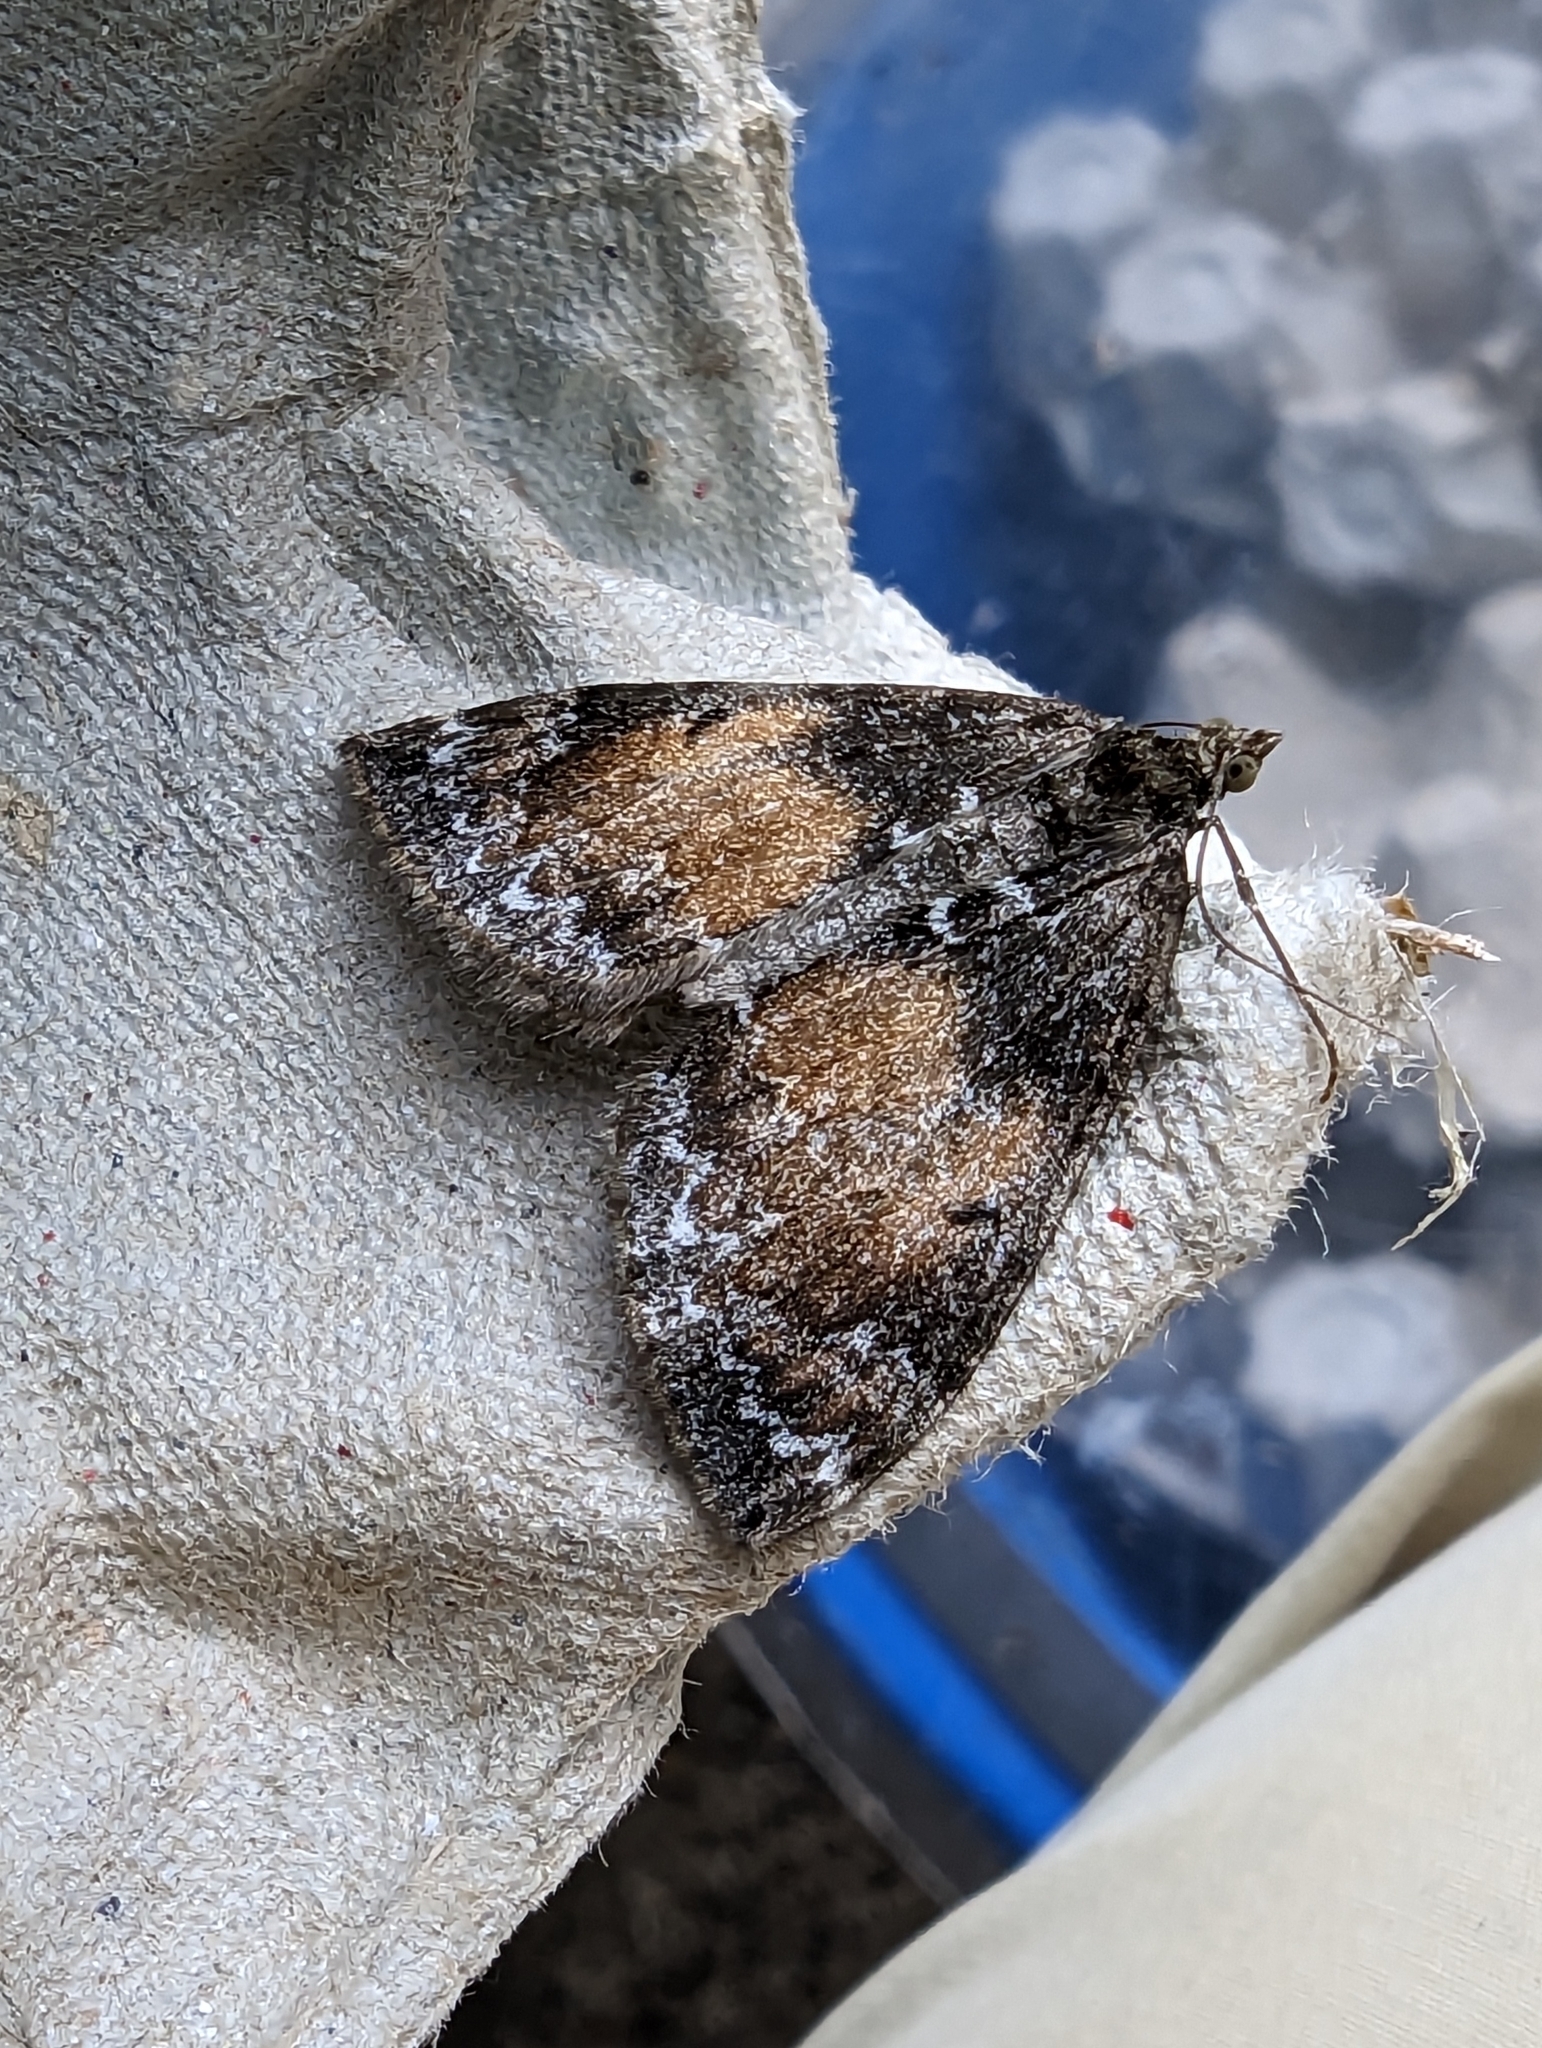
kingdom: Animalia
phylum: Arthropoda
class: Insecta
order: Lepidoptera
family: Geometridae
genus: Dysstroma
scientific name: Dysstroma truncata
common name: Common marbled carpet
